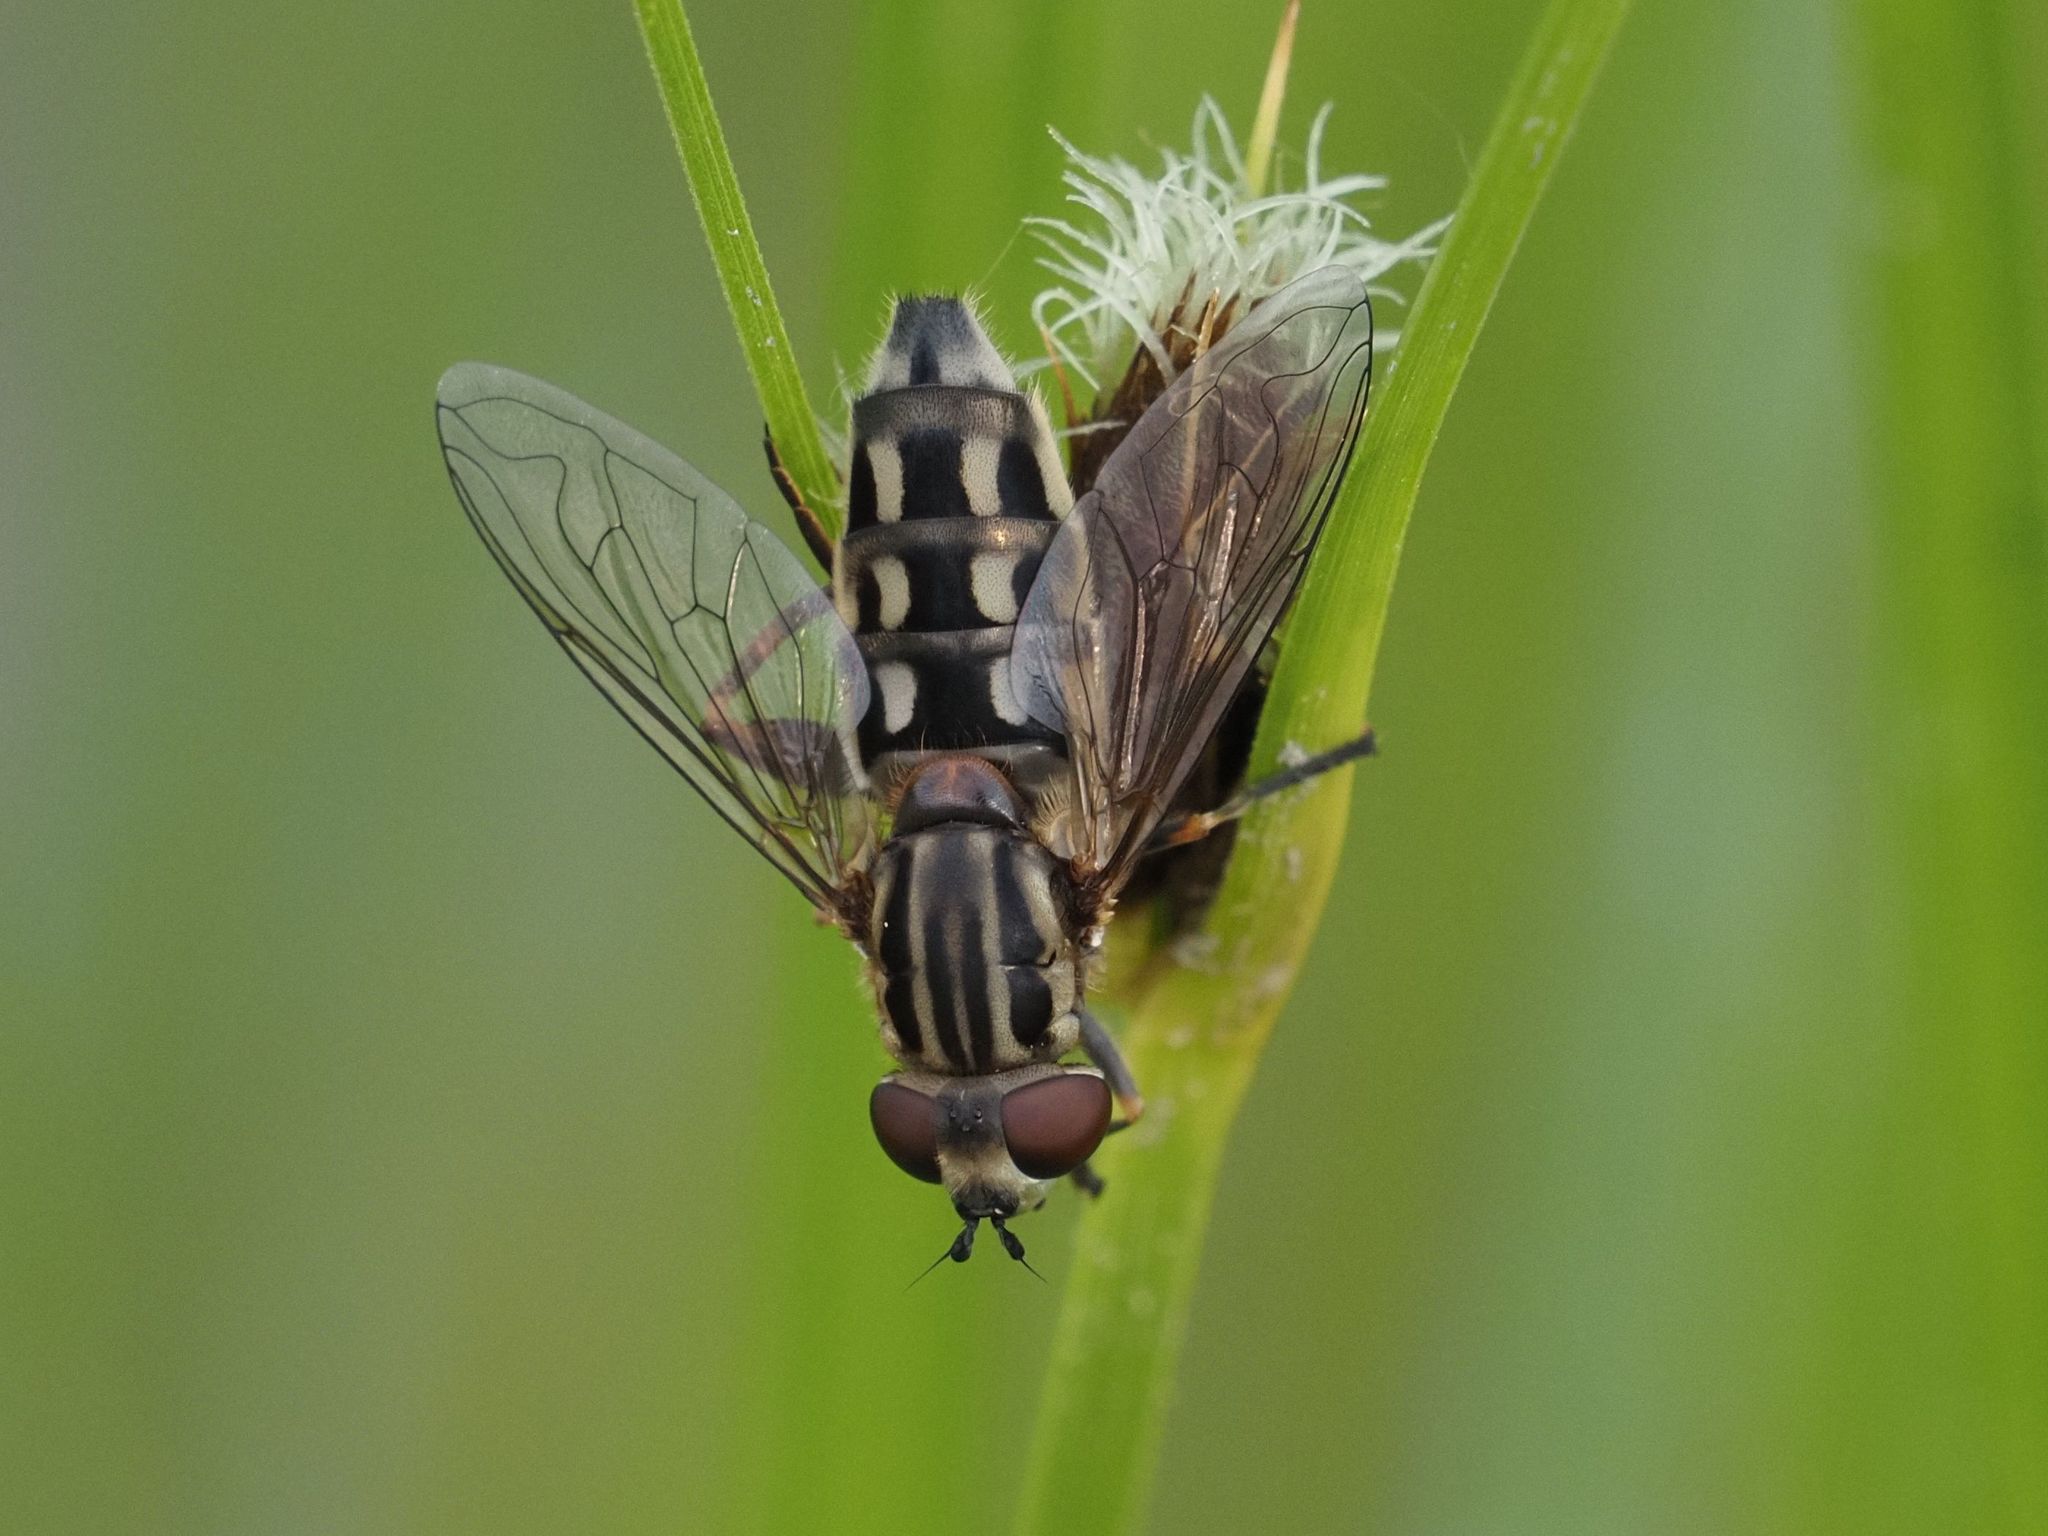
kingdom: Animalia
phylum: Arthropoda
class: Insecta
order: Diptera
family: Syrphidae
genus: Lejops
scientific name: Lejops vittatus
